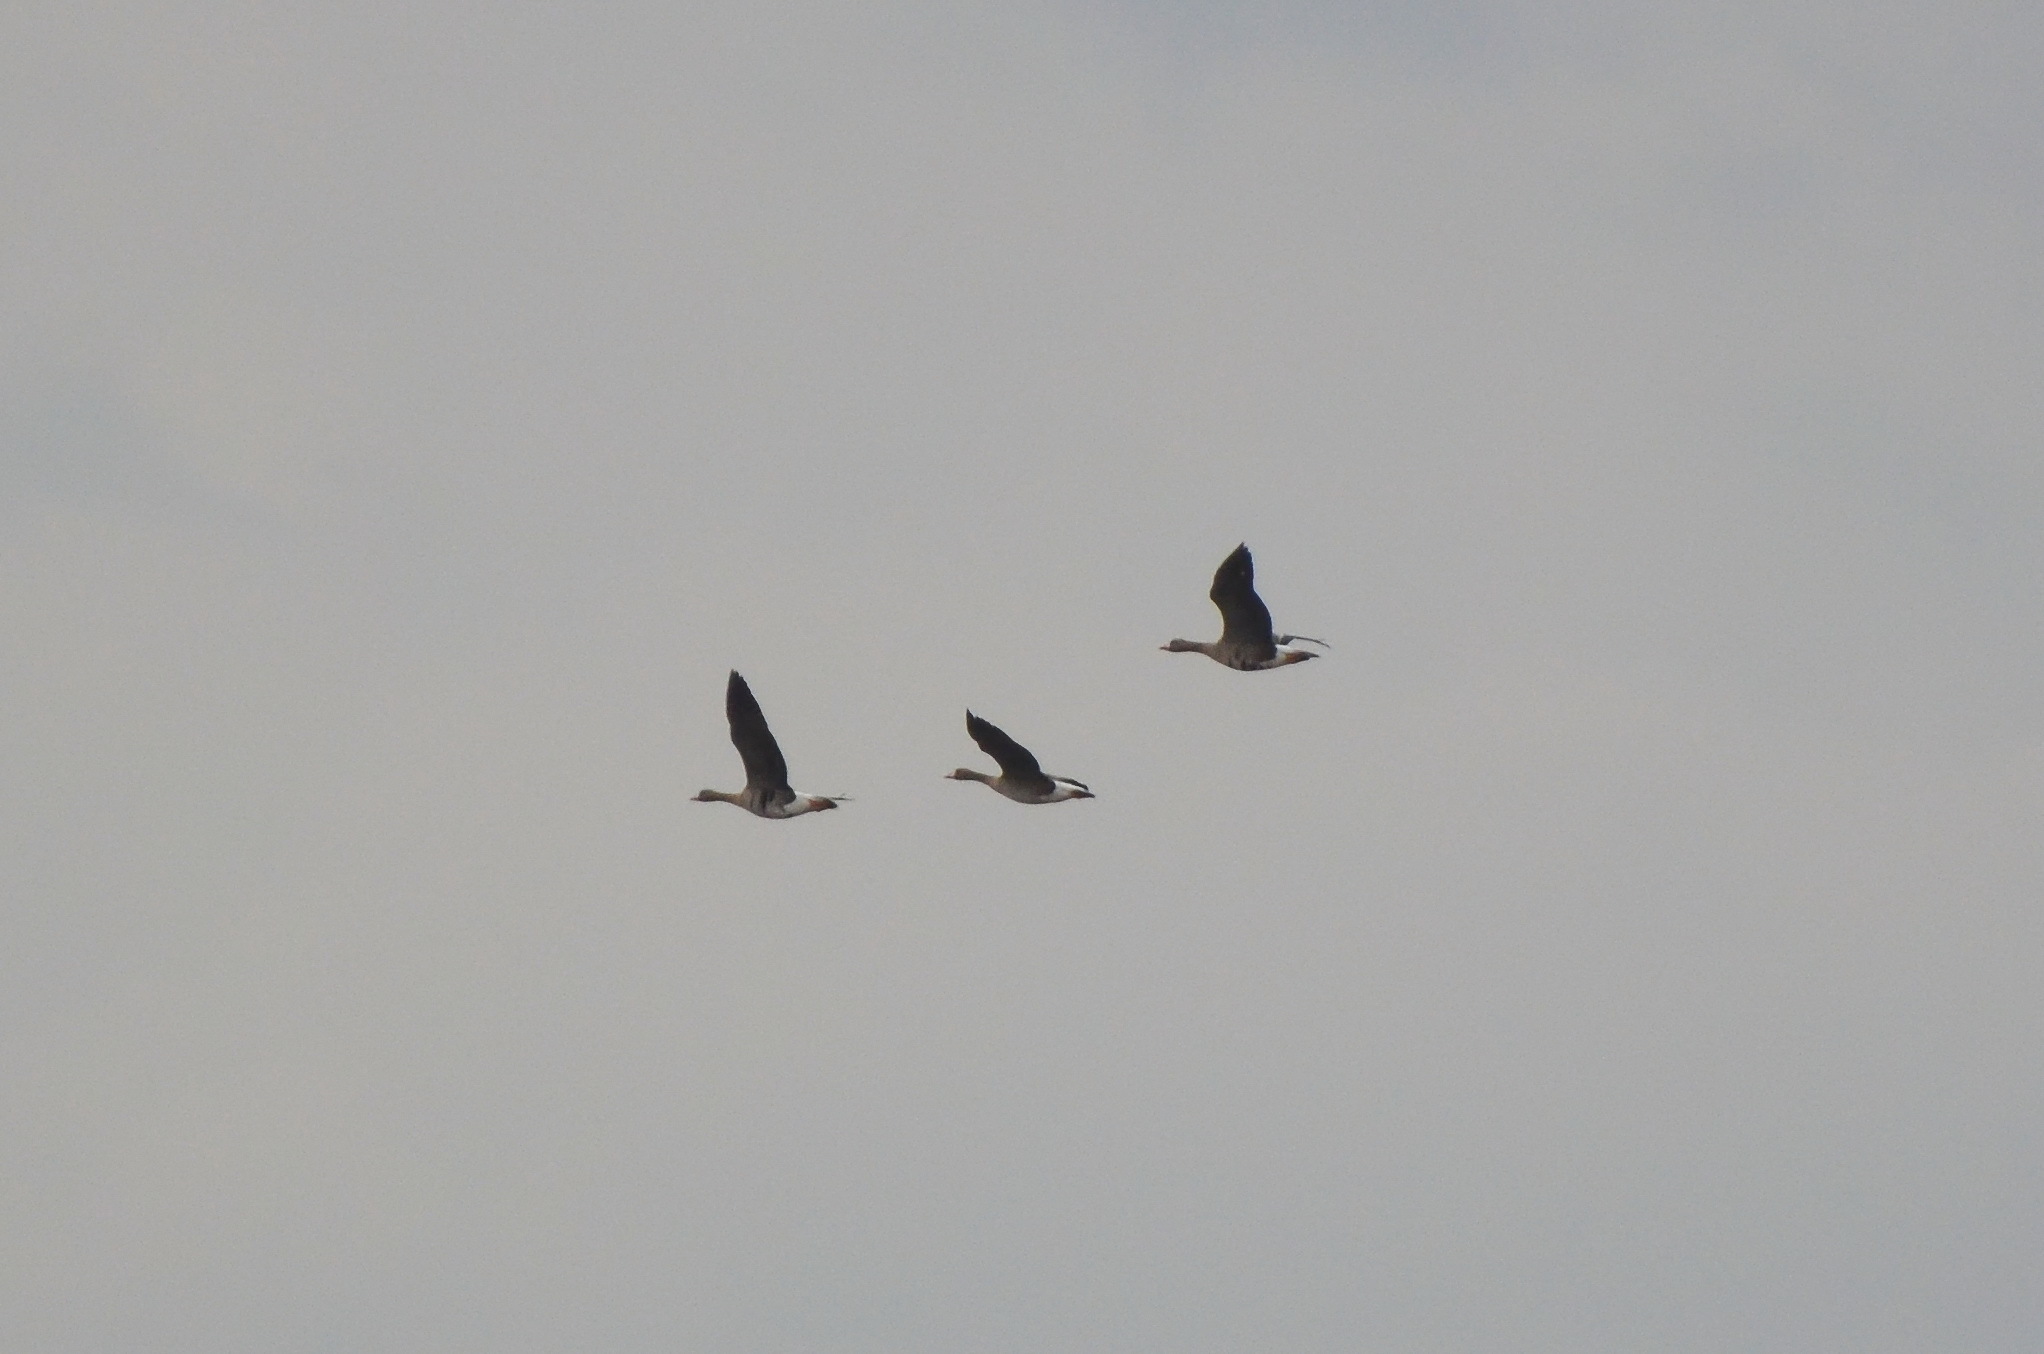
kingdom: Animalia
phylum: Chordata
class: Aves
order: Anseriformes
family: Anatidae
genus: Anser
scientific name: Anser albifrons
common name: Greater white-fronted goose
